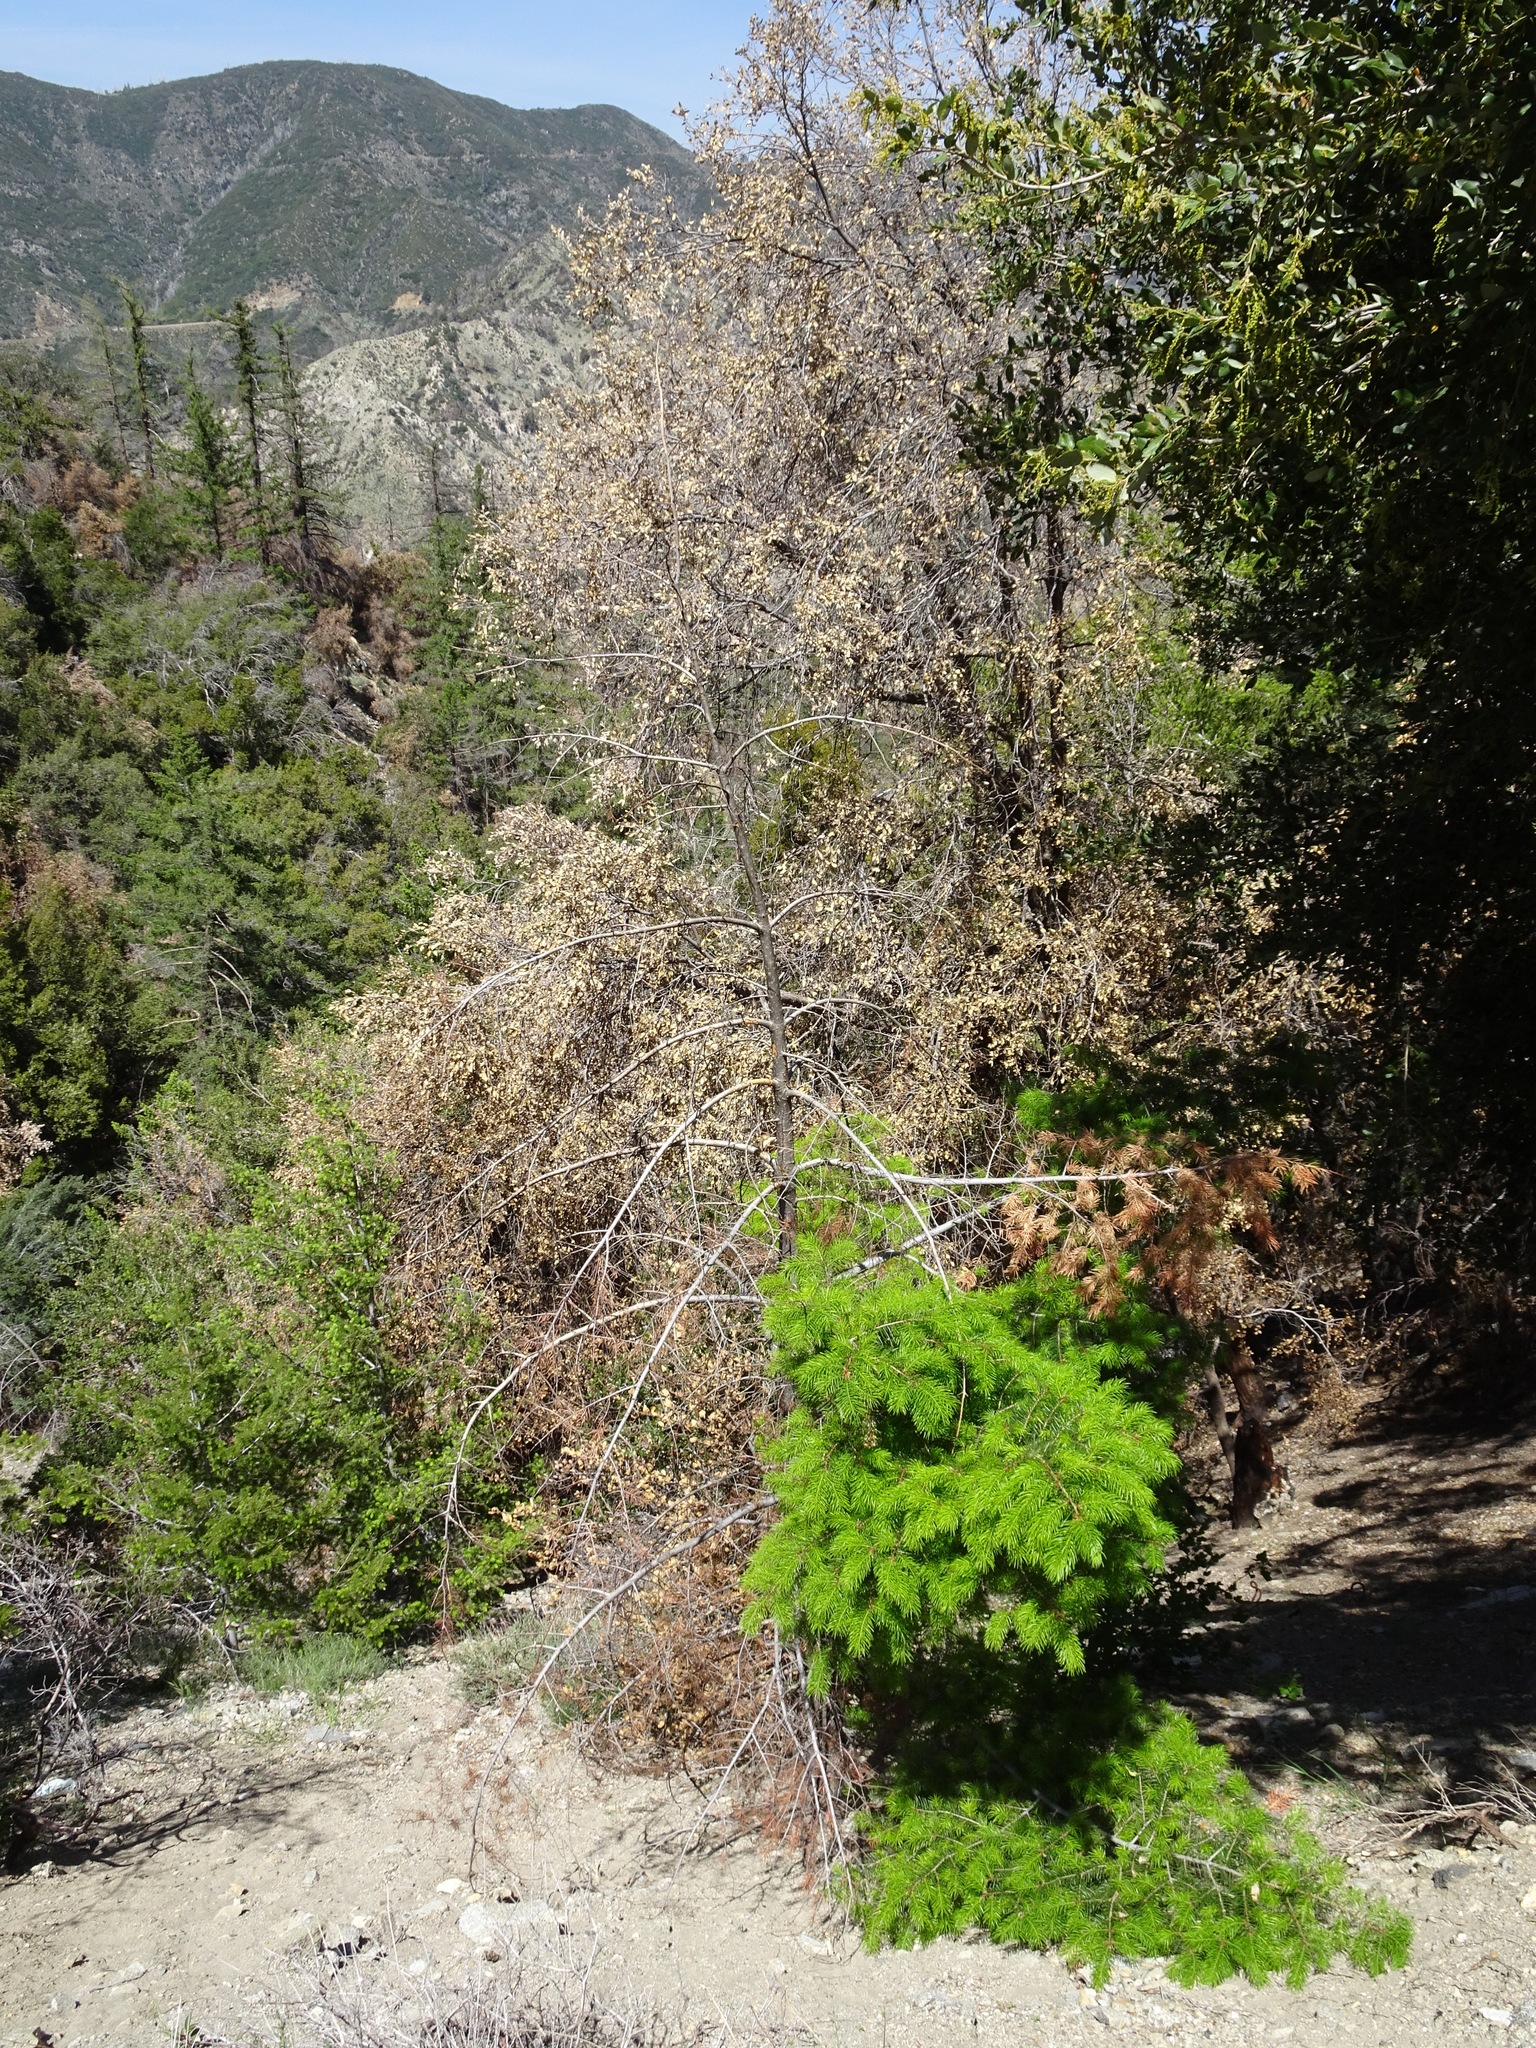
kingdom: Plantae
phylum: Tracheophyta
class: Pinopsida
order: Pinales
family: Pinaceae
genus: Pseudotsuga
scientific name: Pseudotsuga macrocarpa
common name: Big-cone douglas-fir
